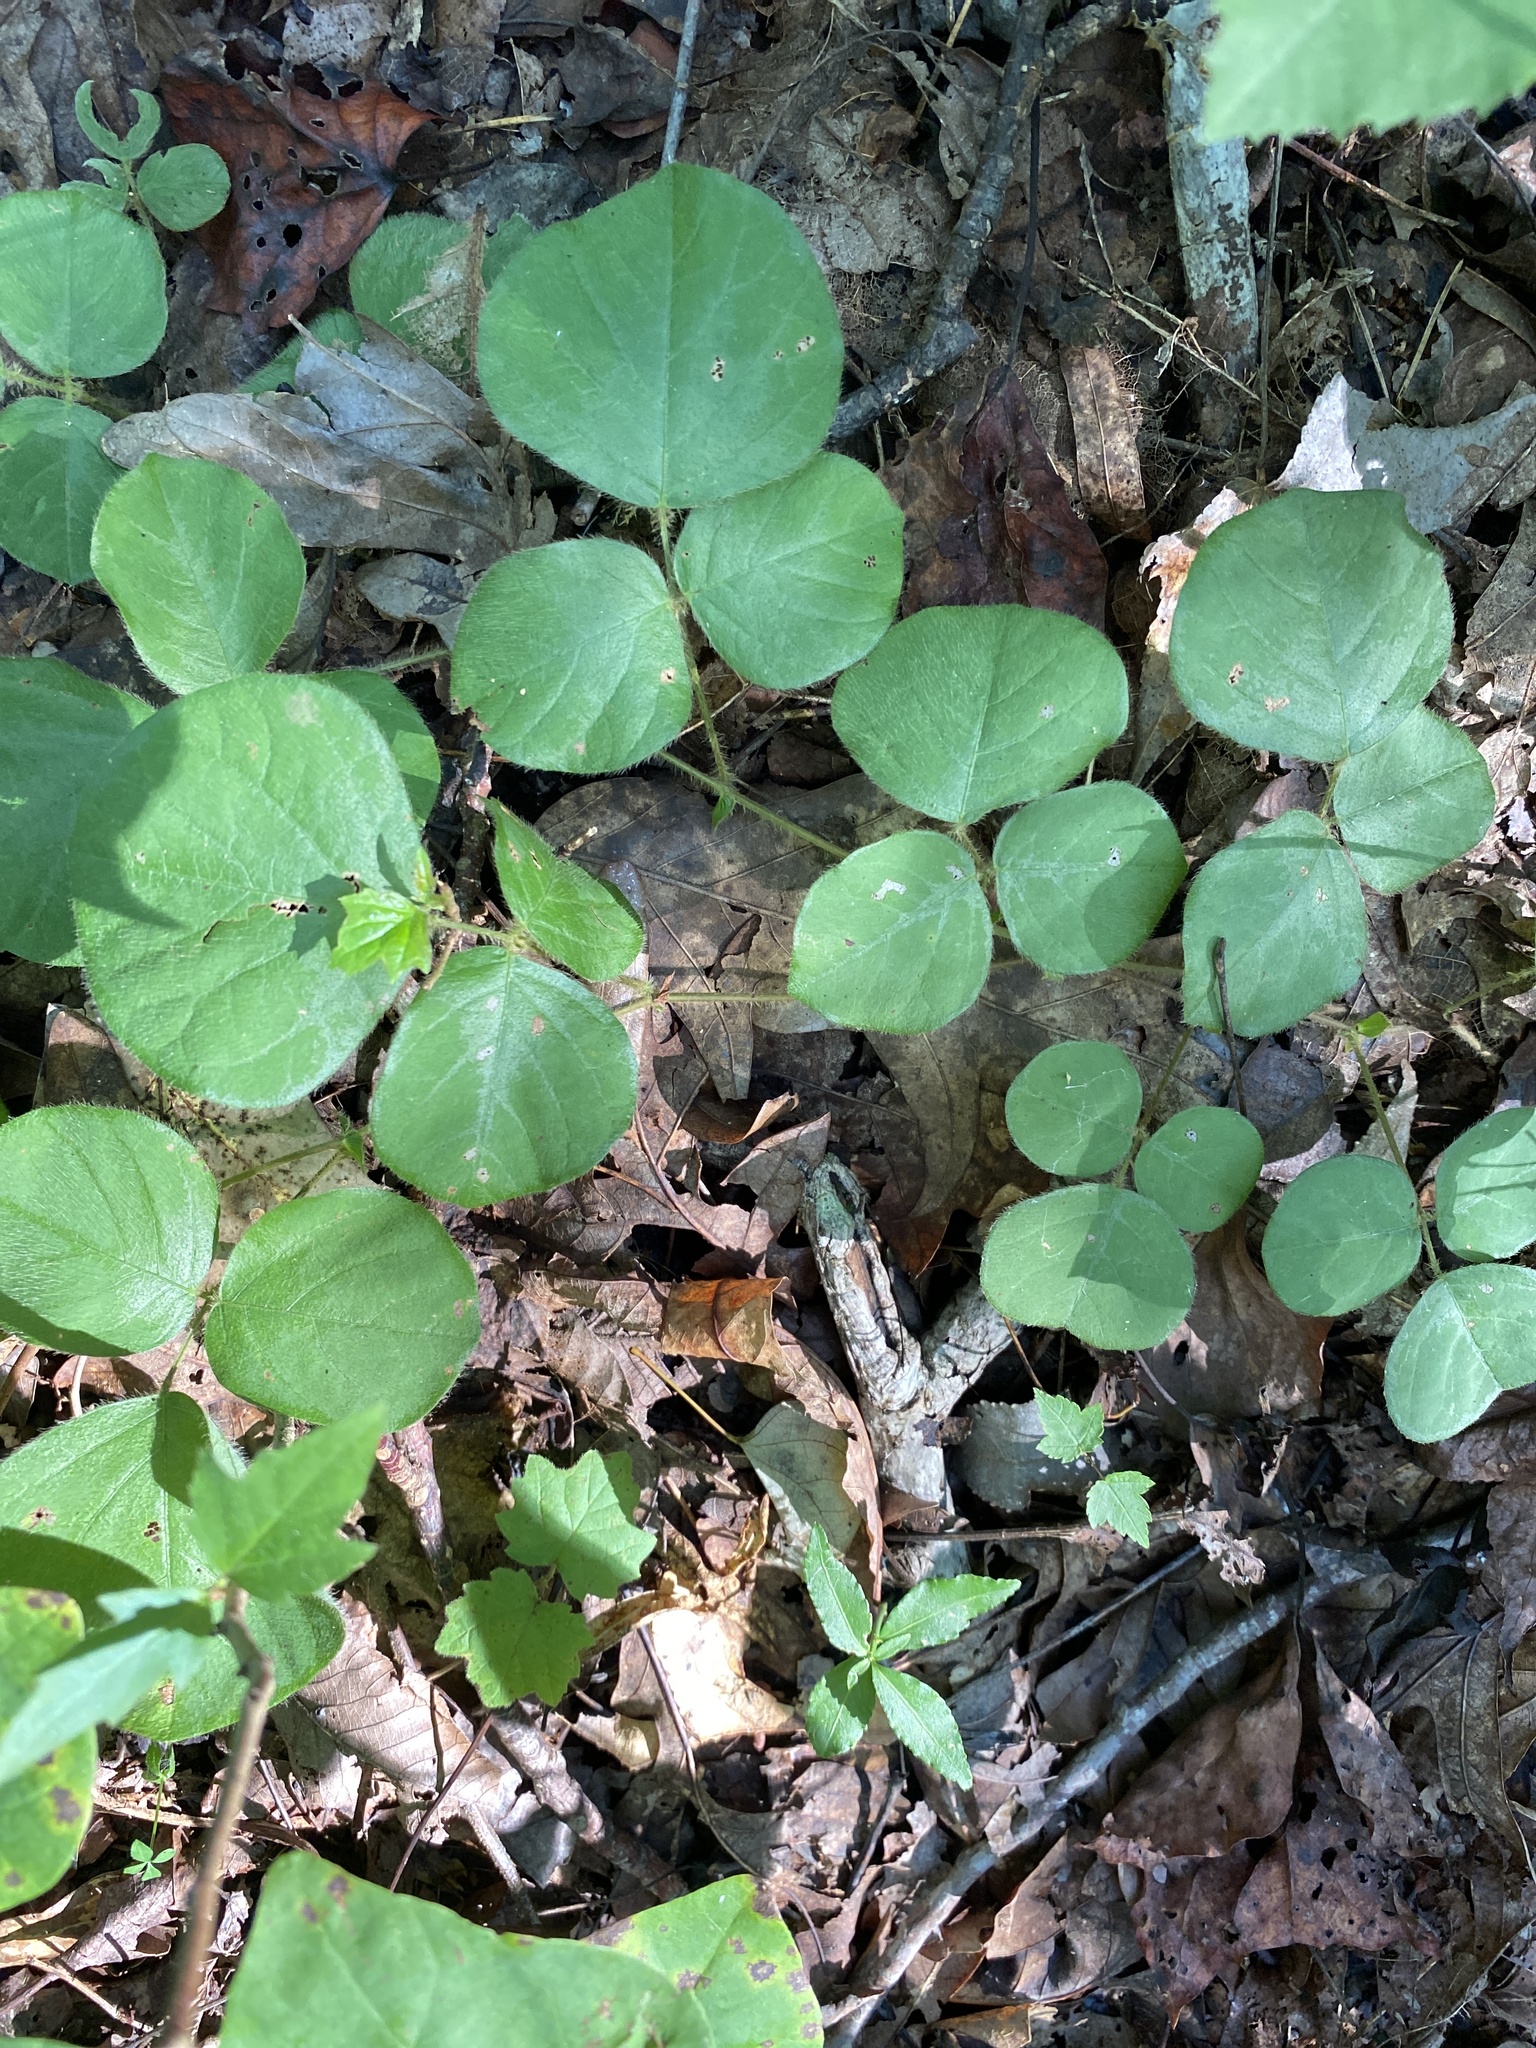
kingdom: Plantae
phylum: Tracheophyta
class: Magnoliopsida
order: Fabales
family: Fabaceae
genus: Desmodium
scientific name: Desmodium rotundifolium
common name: Dollarleaf
